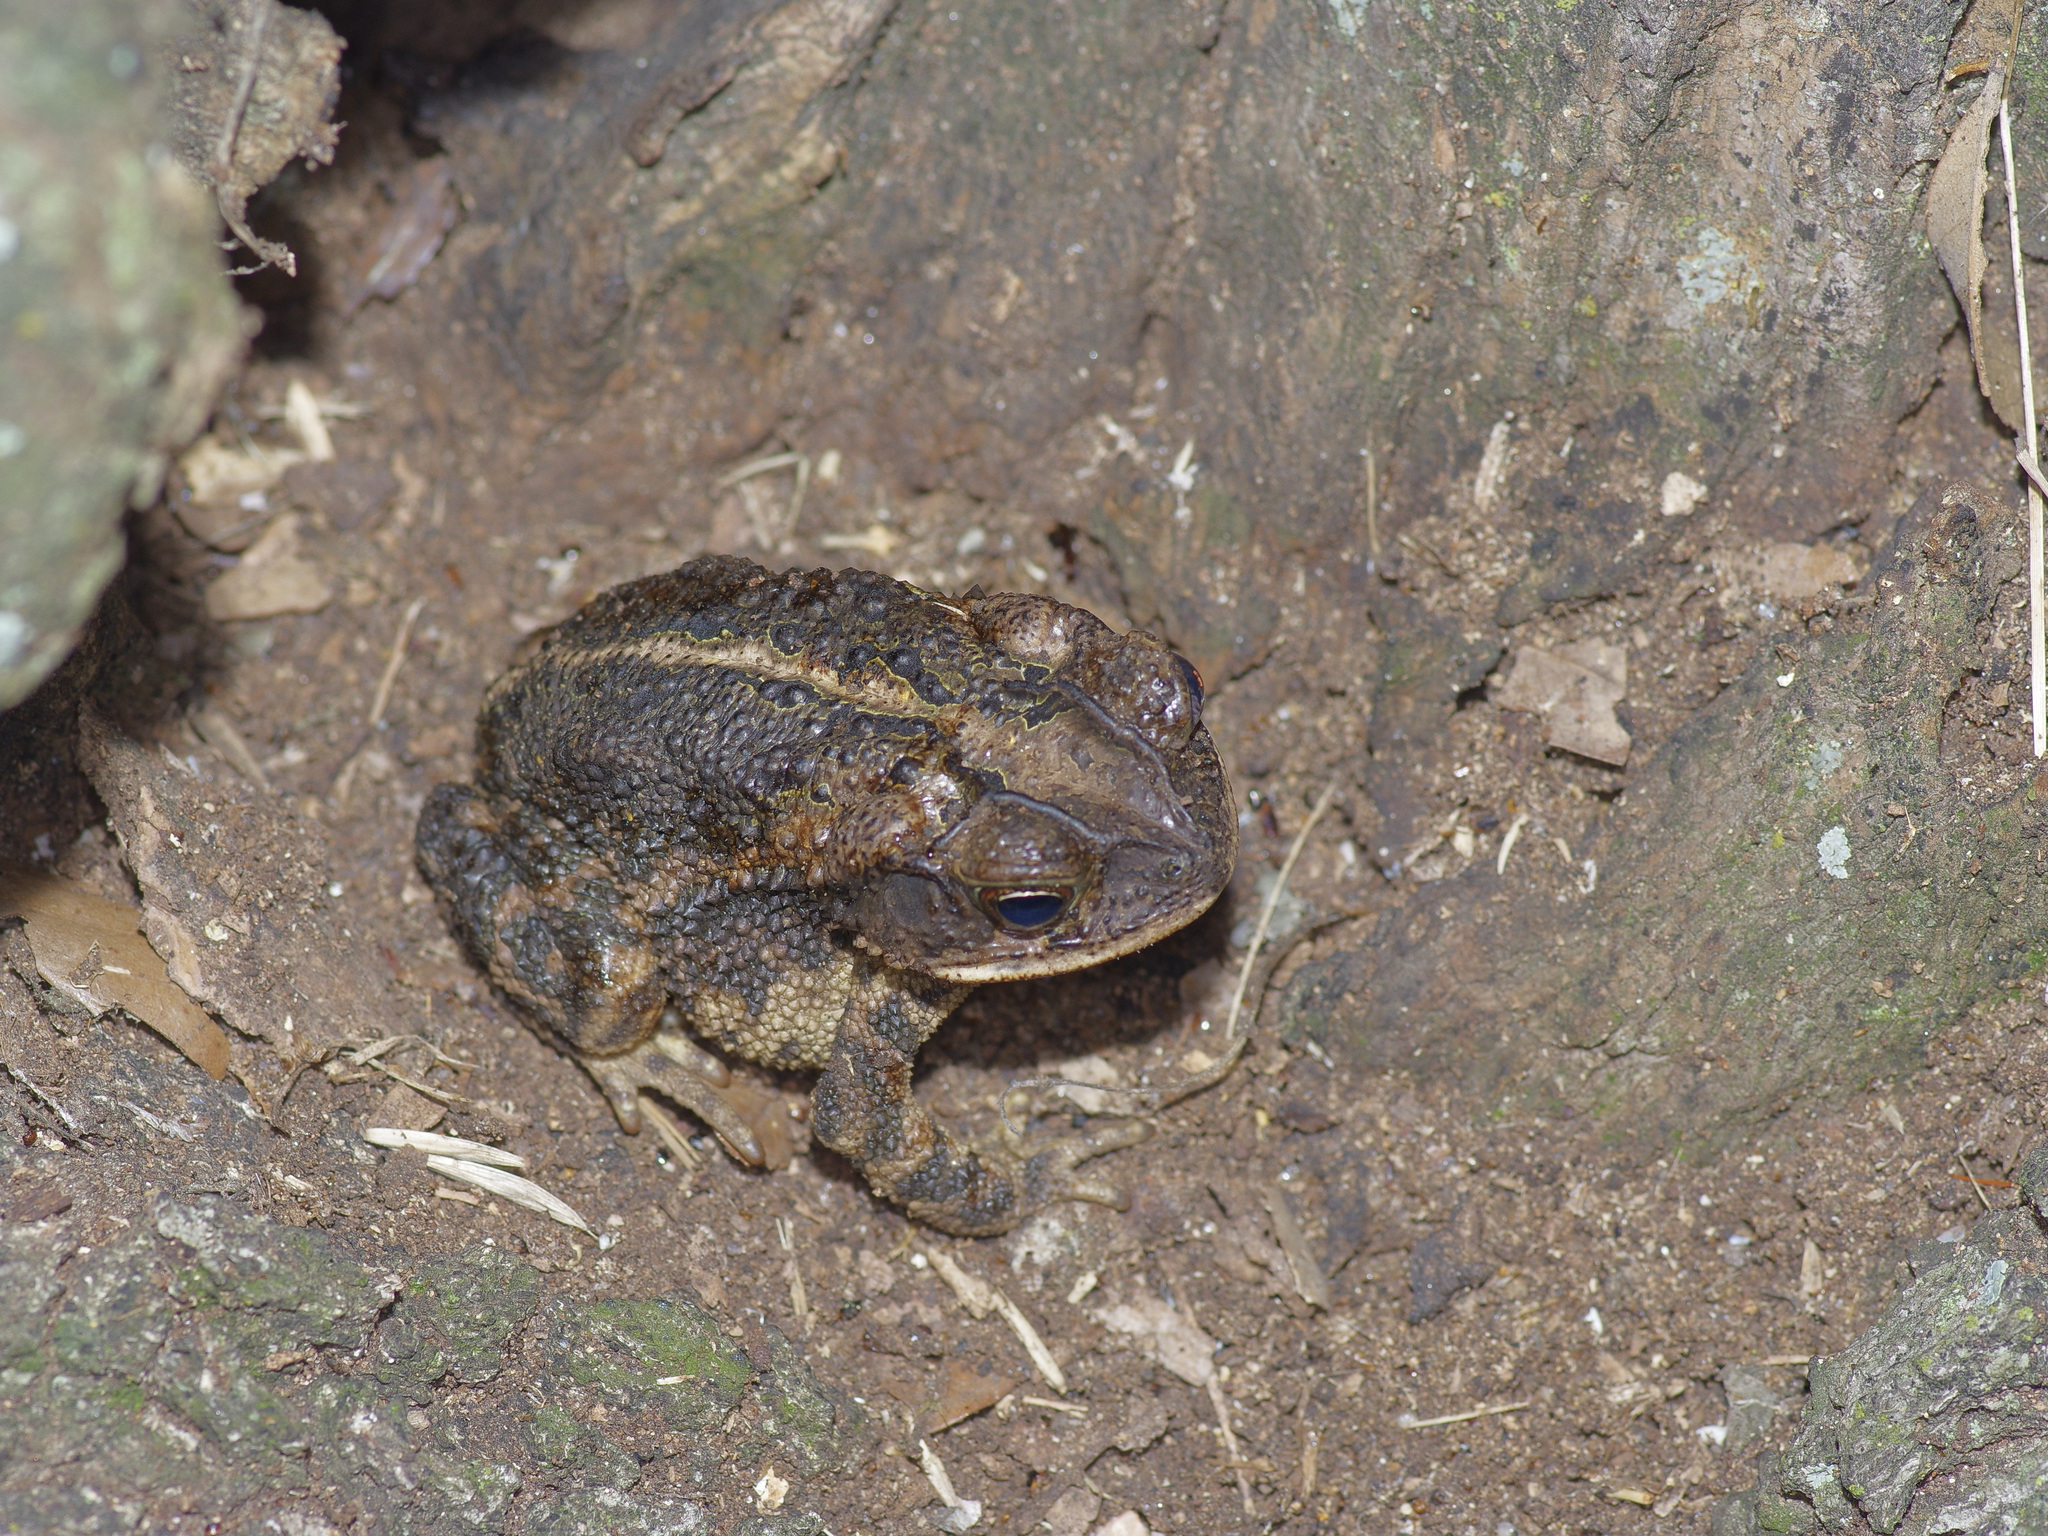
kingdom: Animalia
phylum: Chordata
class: Amphibia
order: Anura
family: Bufonidae
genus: Incilius
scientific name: Incilius nebulifer
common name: Gulf coast toad
